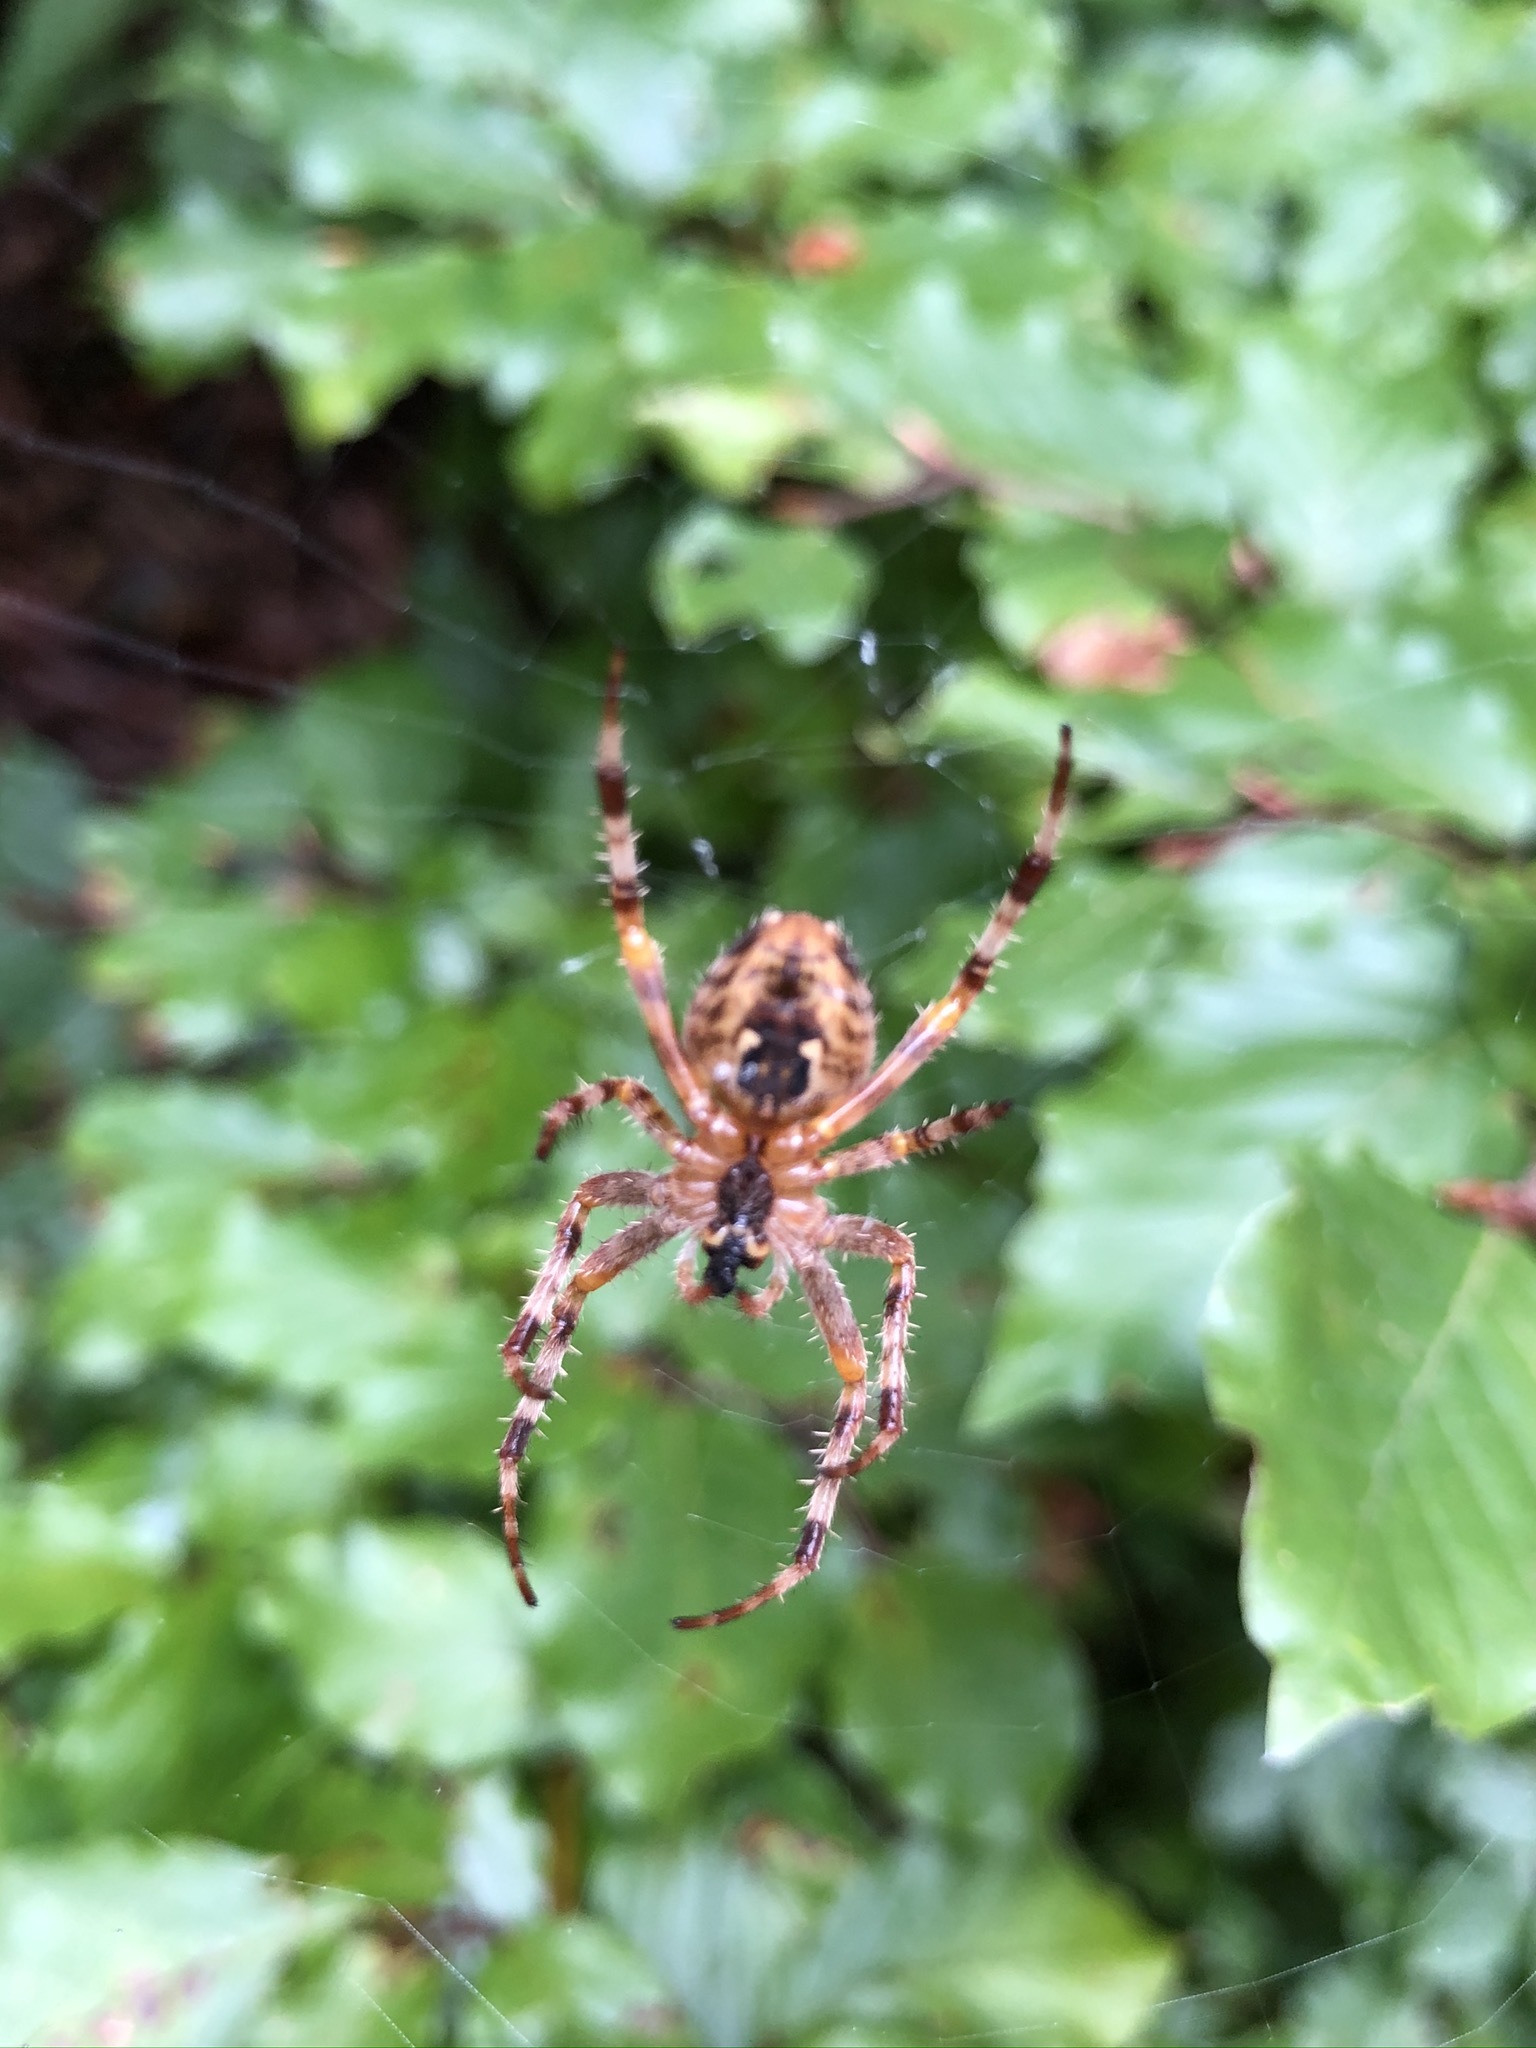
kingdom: Animalia
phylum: Arthropoda
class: Arachnida
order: Araneae
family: Araneidae
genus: Araneus
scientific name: Araneus diadematus
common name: Cross orbweaver
